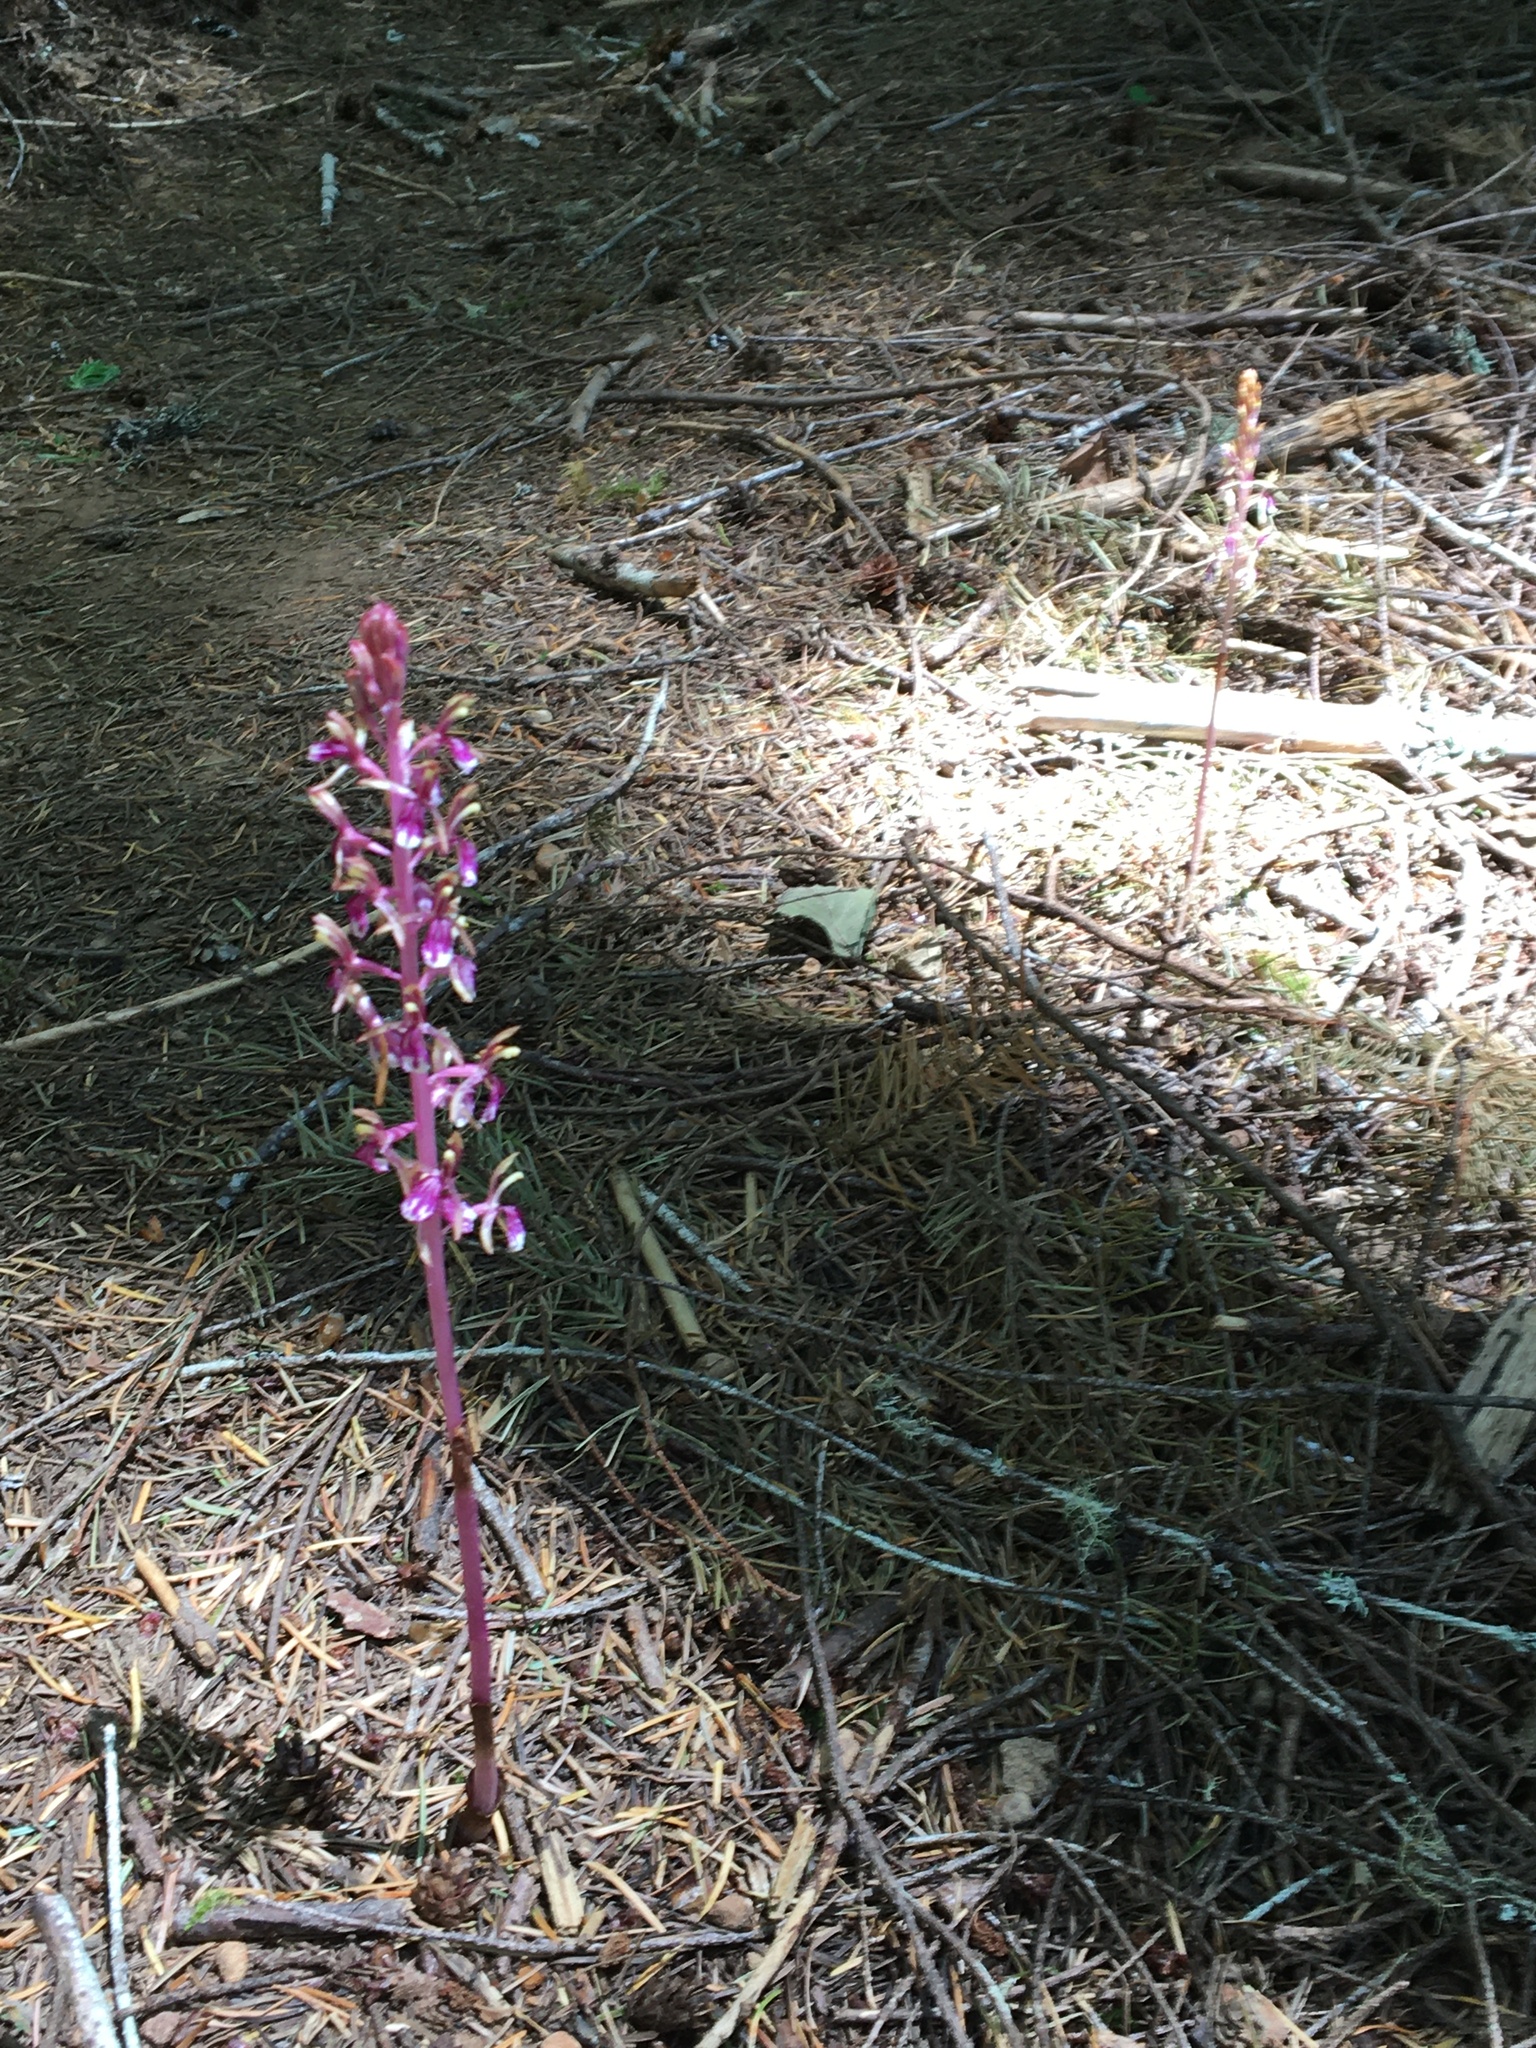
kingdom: Plantae
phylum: Tracheophyta
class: Liliopsida
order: Asparagales
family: Orchidaceae
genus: Corallorhiza
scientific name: Corallorhiza mertensiana
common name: Pacific coralroot
